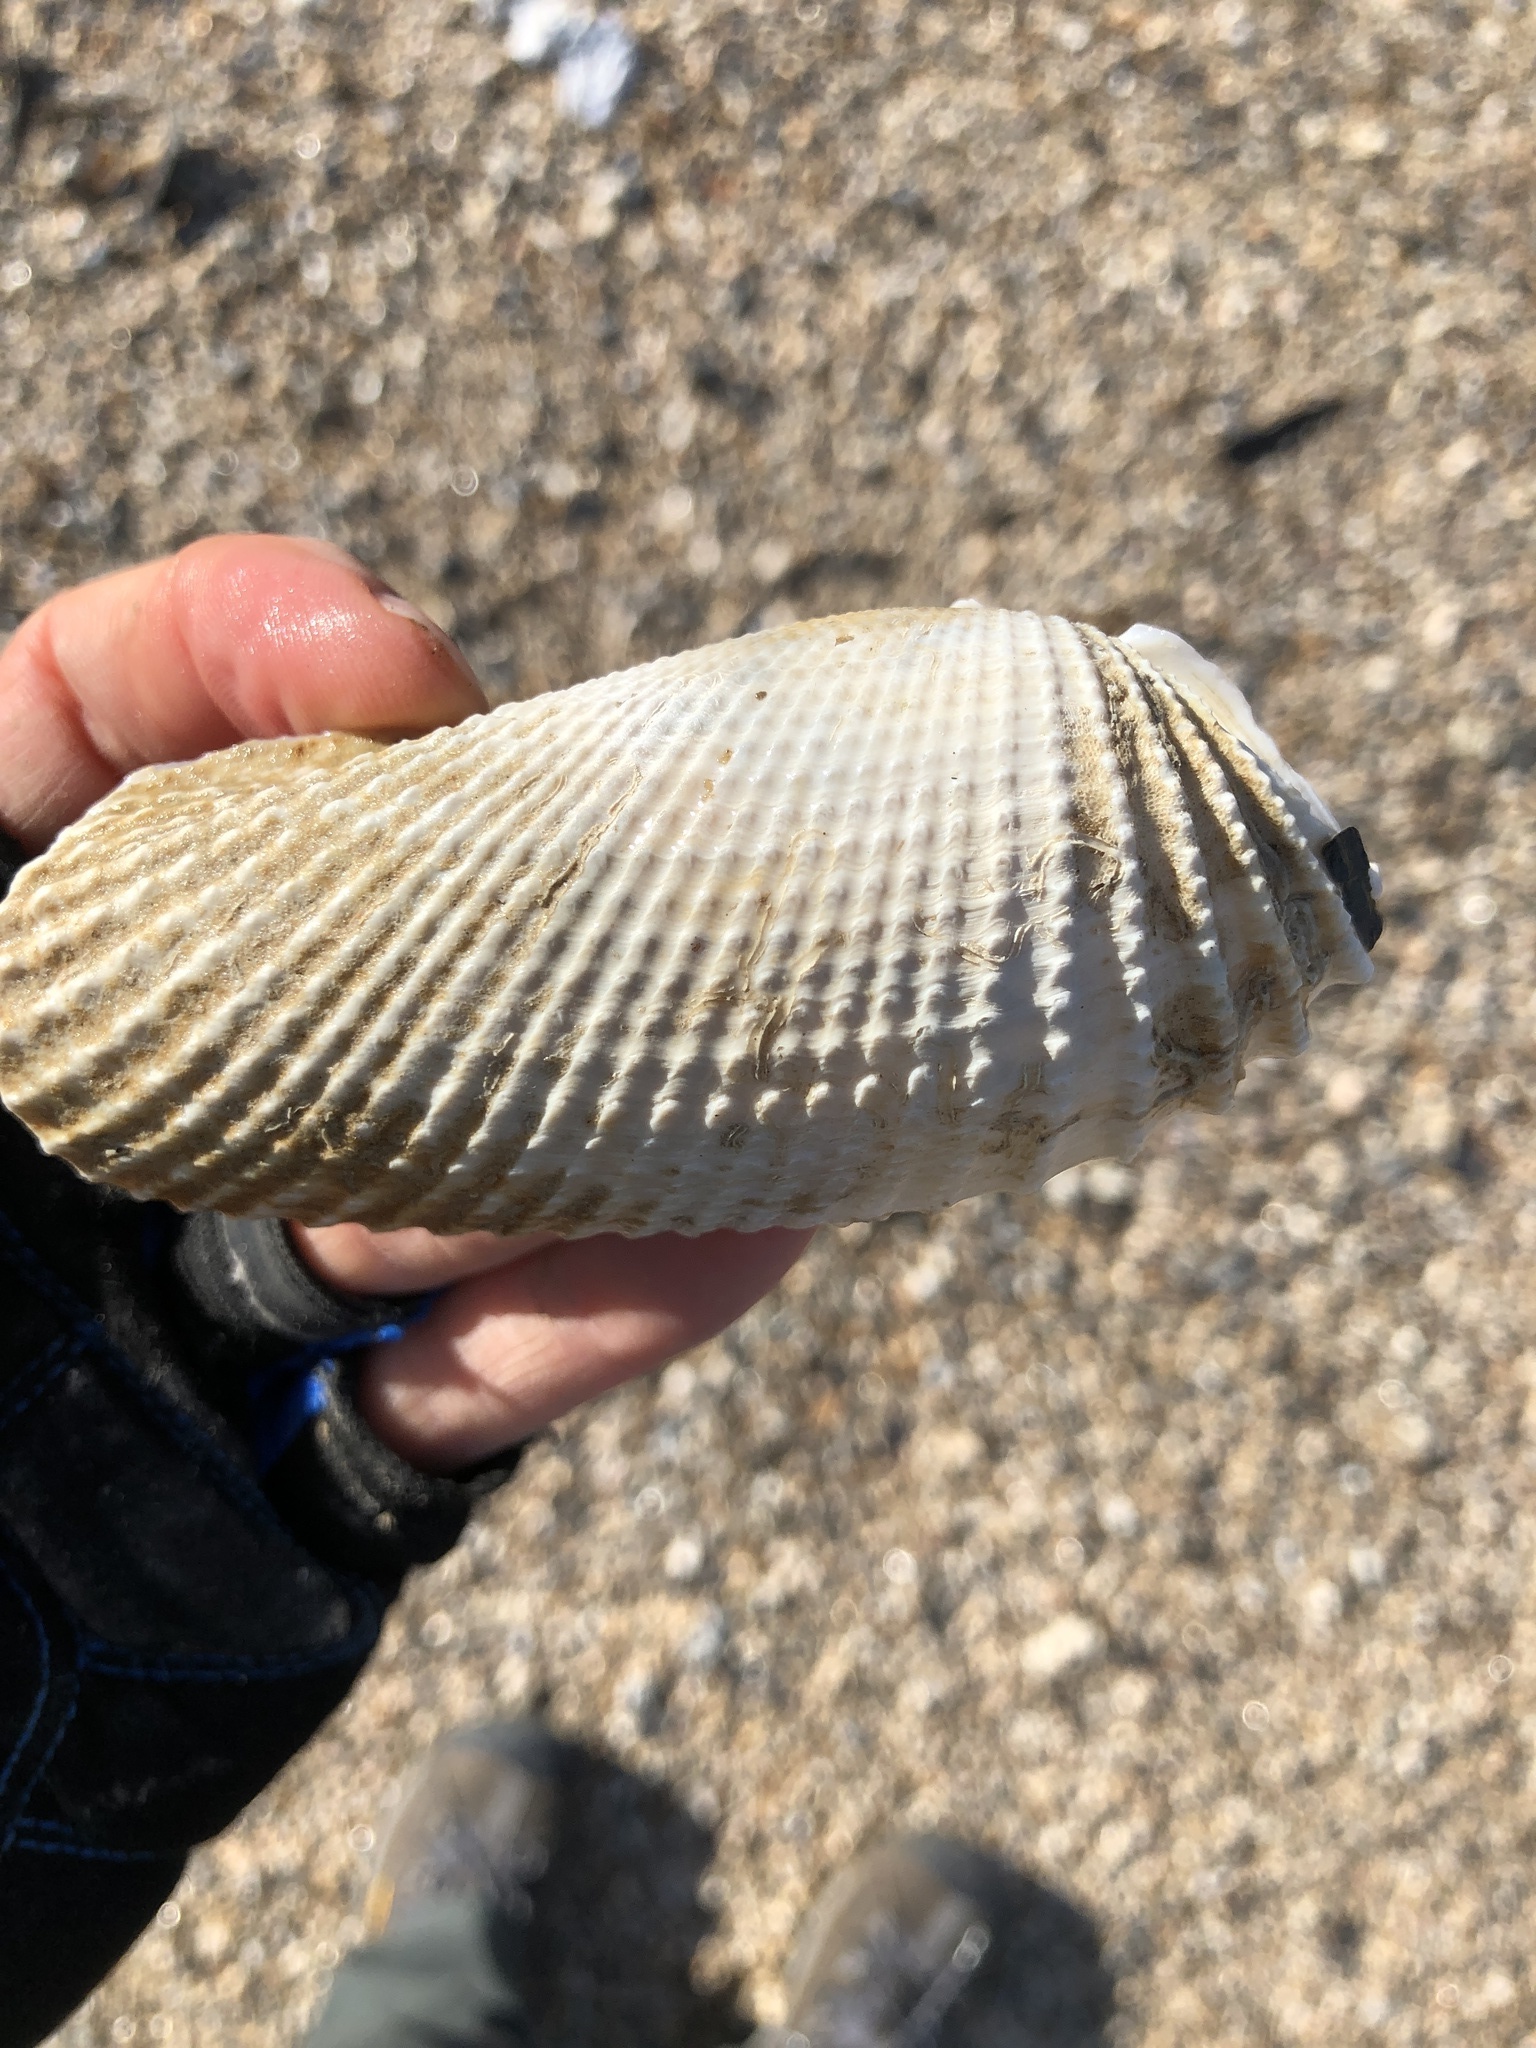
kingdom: Animalia
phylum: Mollusca
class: Bivalvia
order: Myida
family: Pholadidae
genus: Cyrtopleura
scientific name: Cyrtopleura costata
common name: Angel wing
